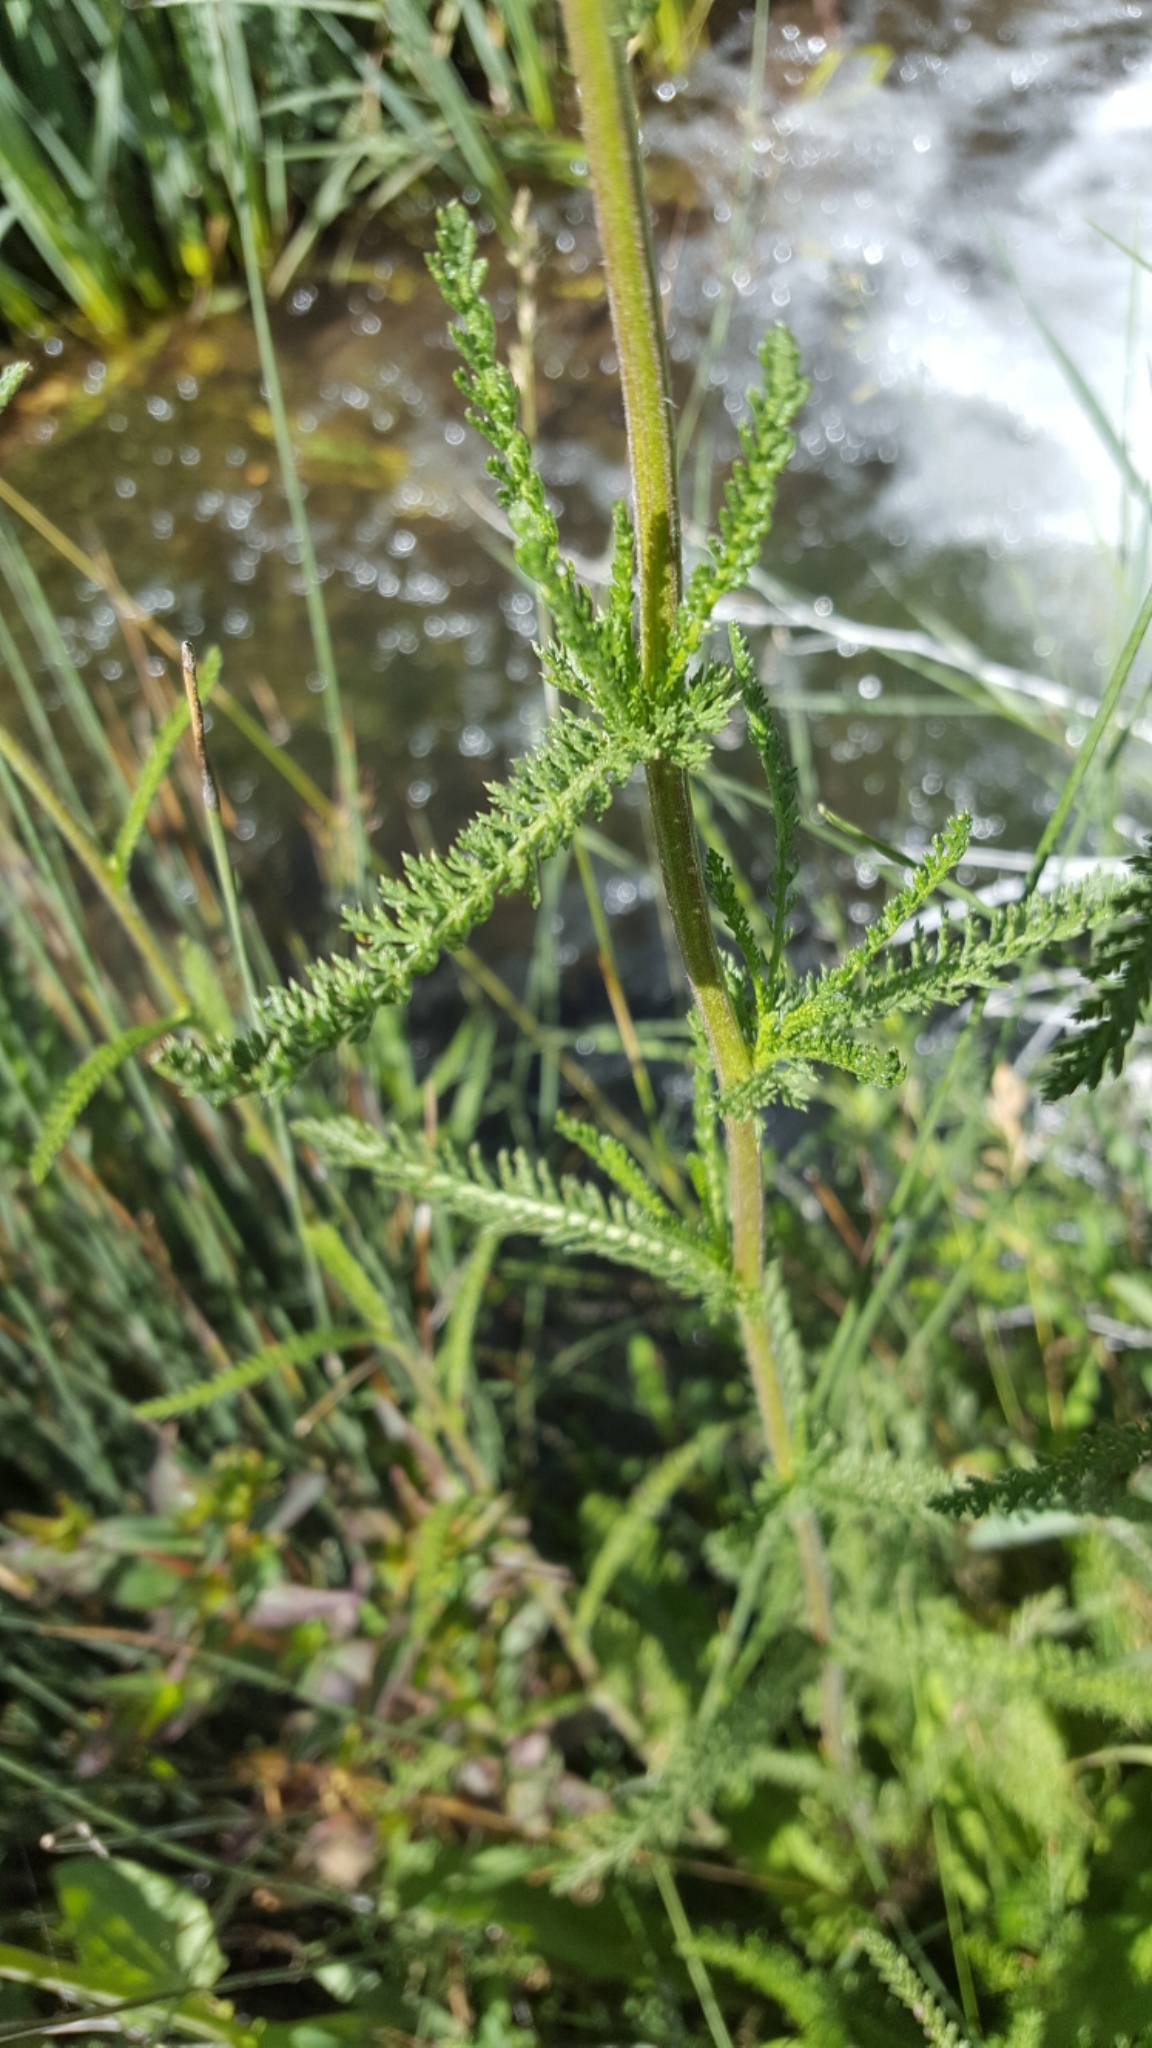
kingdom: Plantae
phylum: Tracheophyta
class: Magnoliopsida
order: Asterales
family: Asteraceae
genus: Achillea
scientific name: Achillea millefolium
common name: Yarrow
